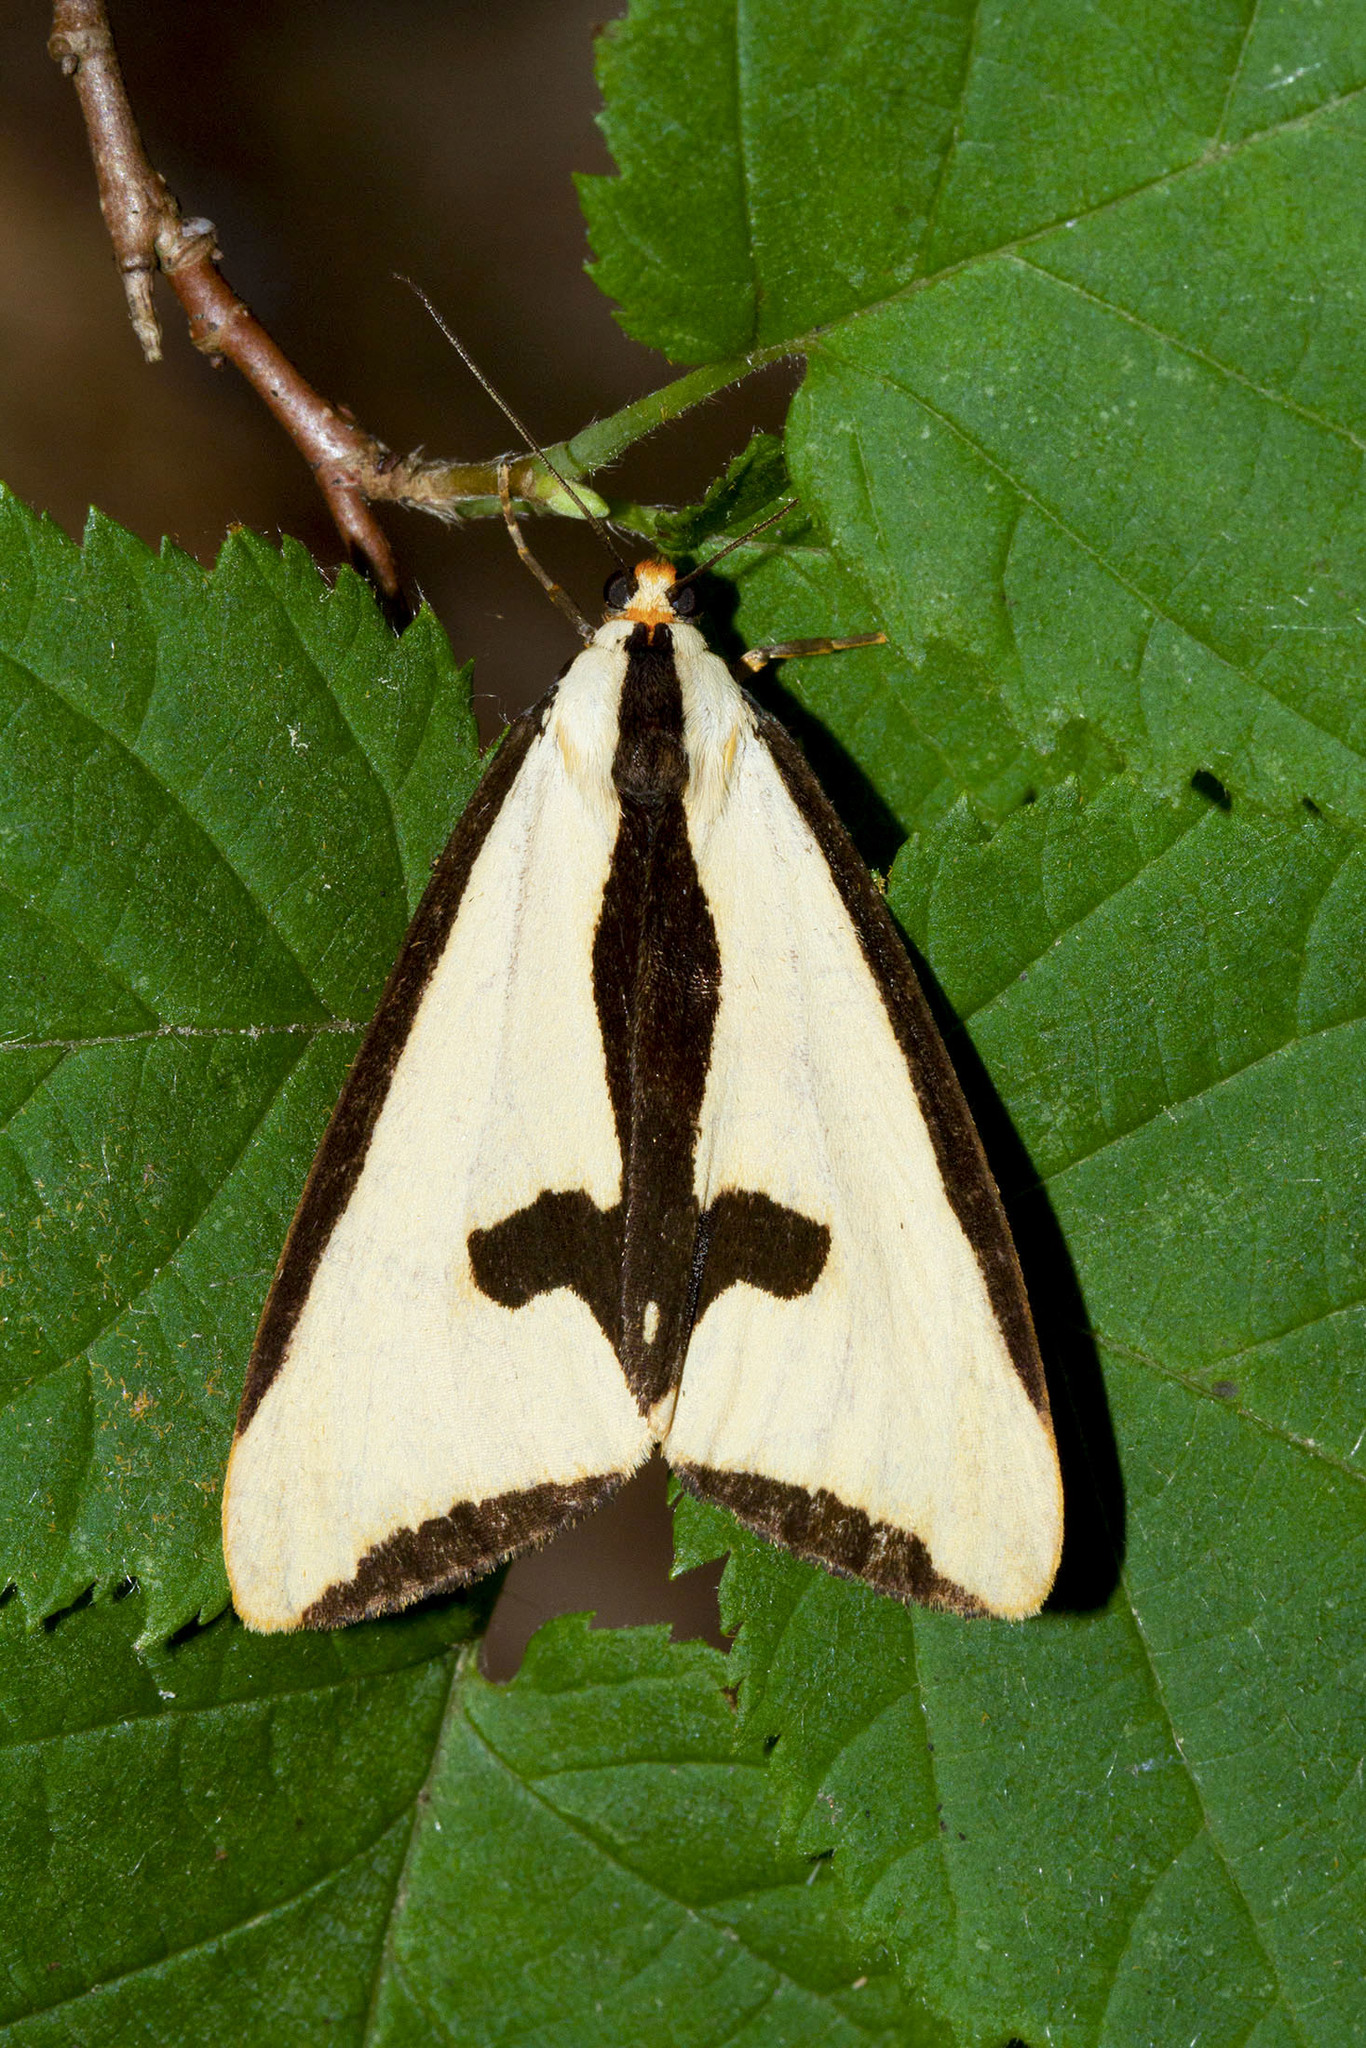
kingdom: Animalia
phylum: Arthropoda
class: Insecta
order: Lepidoptera
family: Erebidae
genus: Haploa
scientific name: Haploa clymene
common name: Clymene moth
